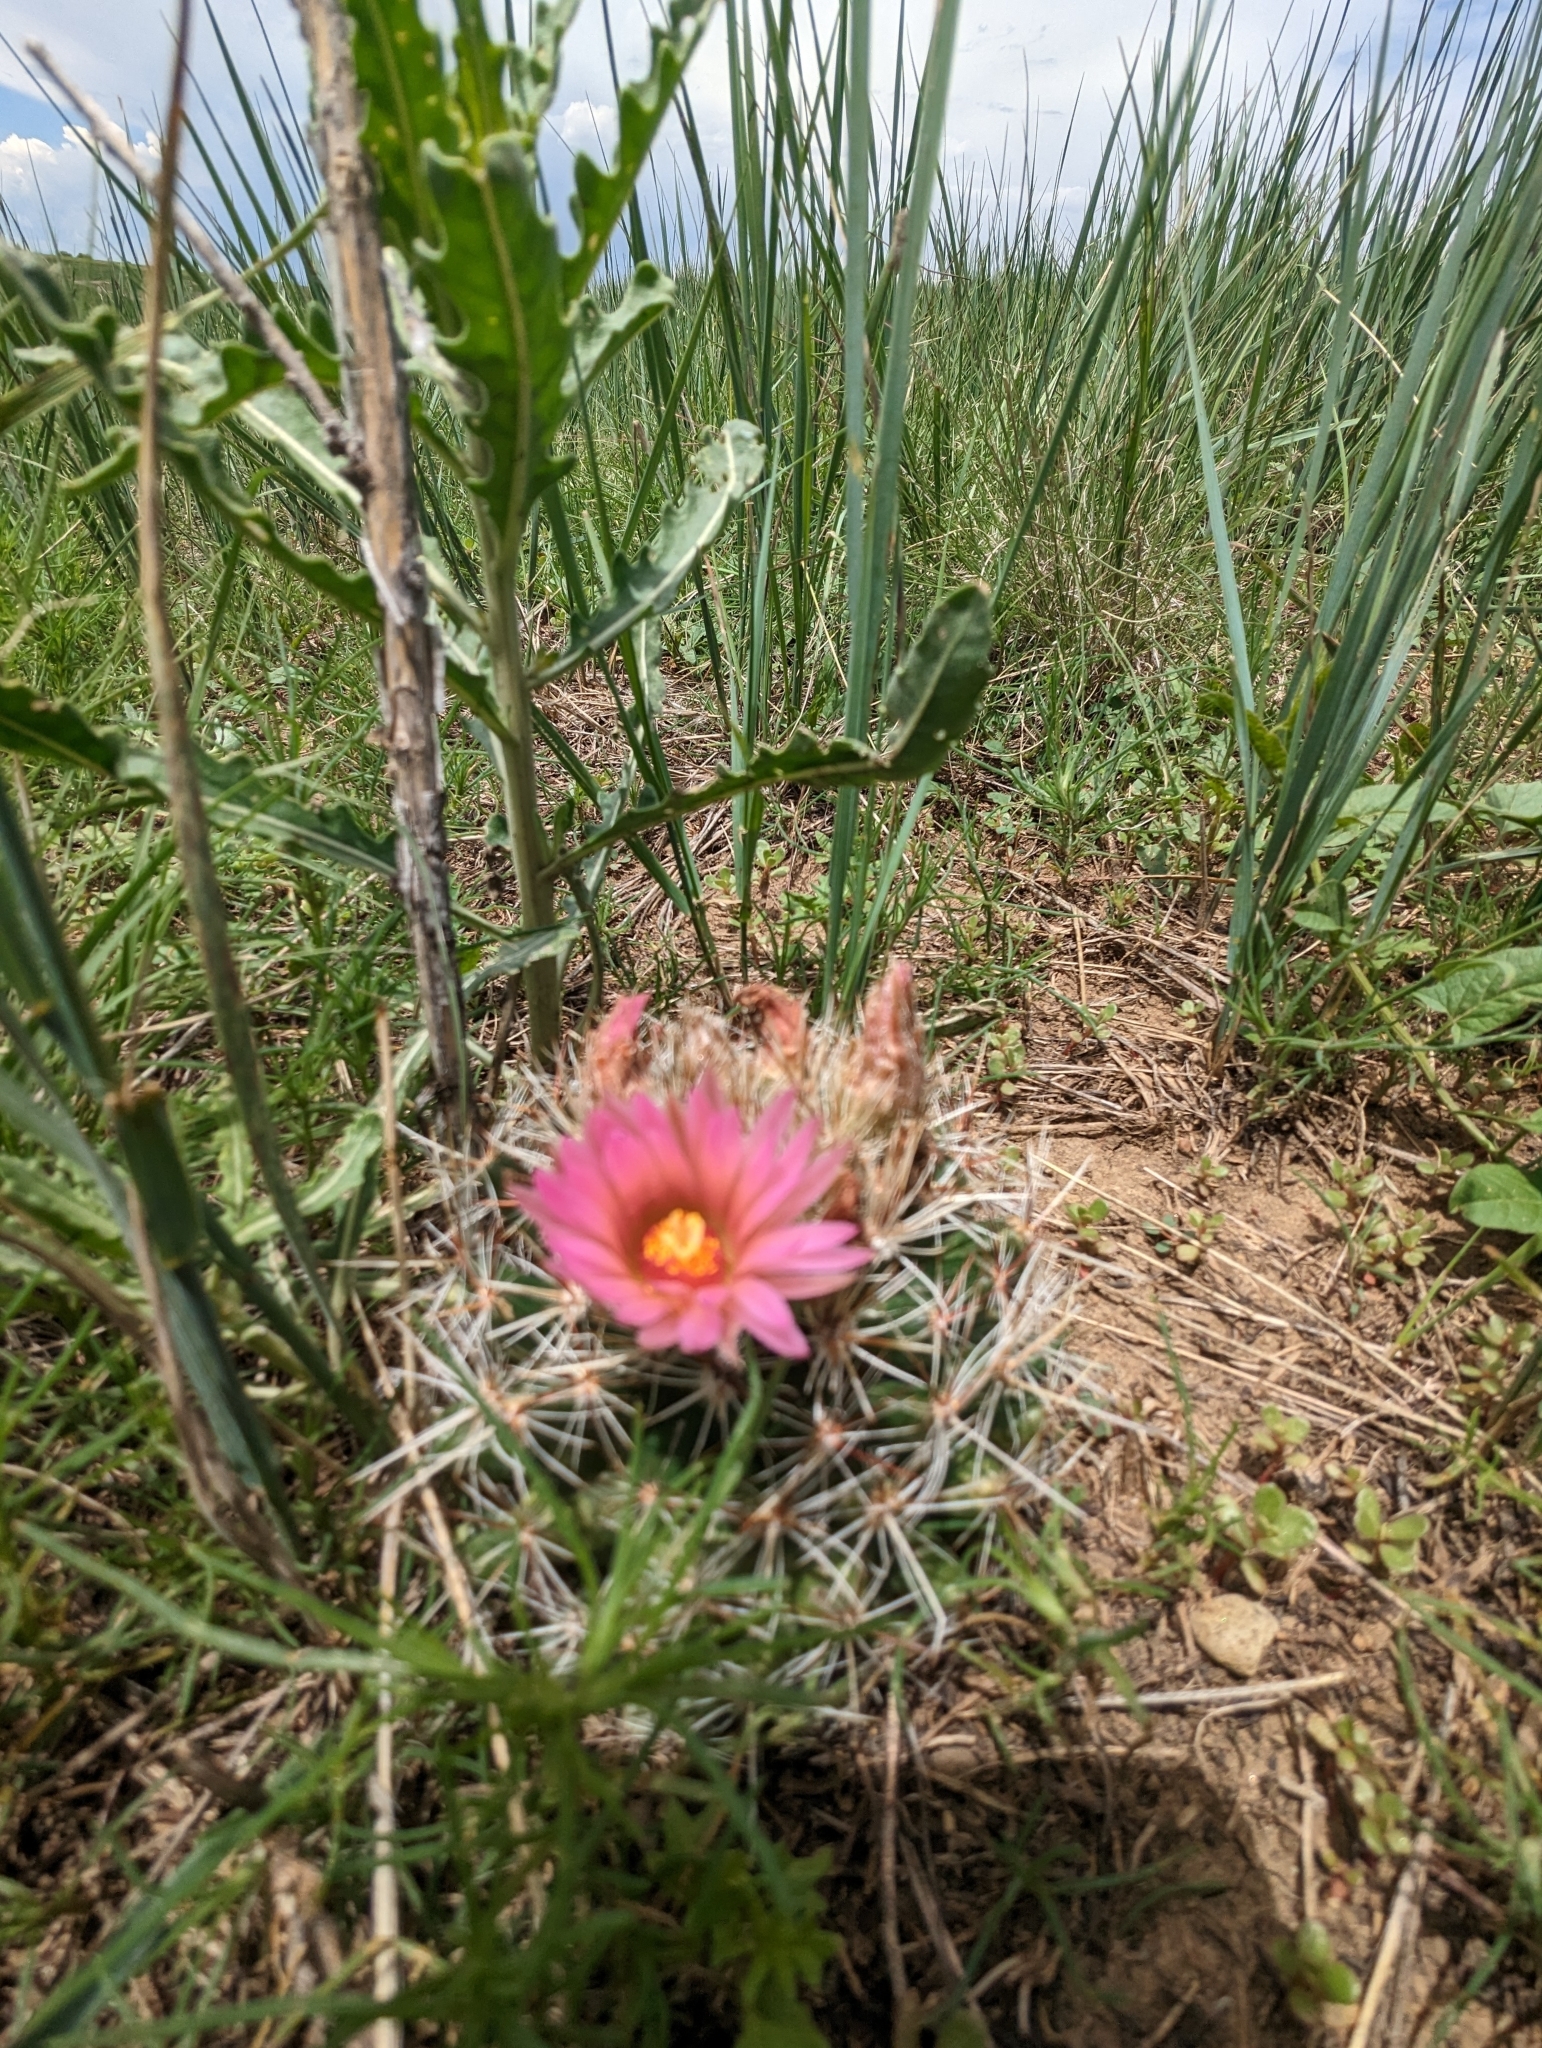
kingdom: Plantae
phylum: Tracheophyta
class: Magnoliopsida
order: Caryophyllales
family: Cactaceae
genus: Pelecyphora
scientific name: Pelecyphora vivipara
